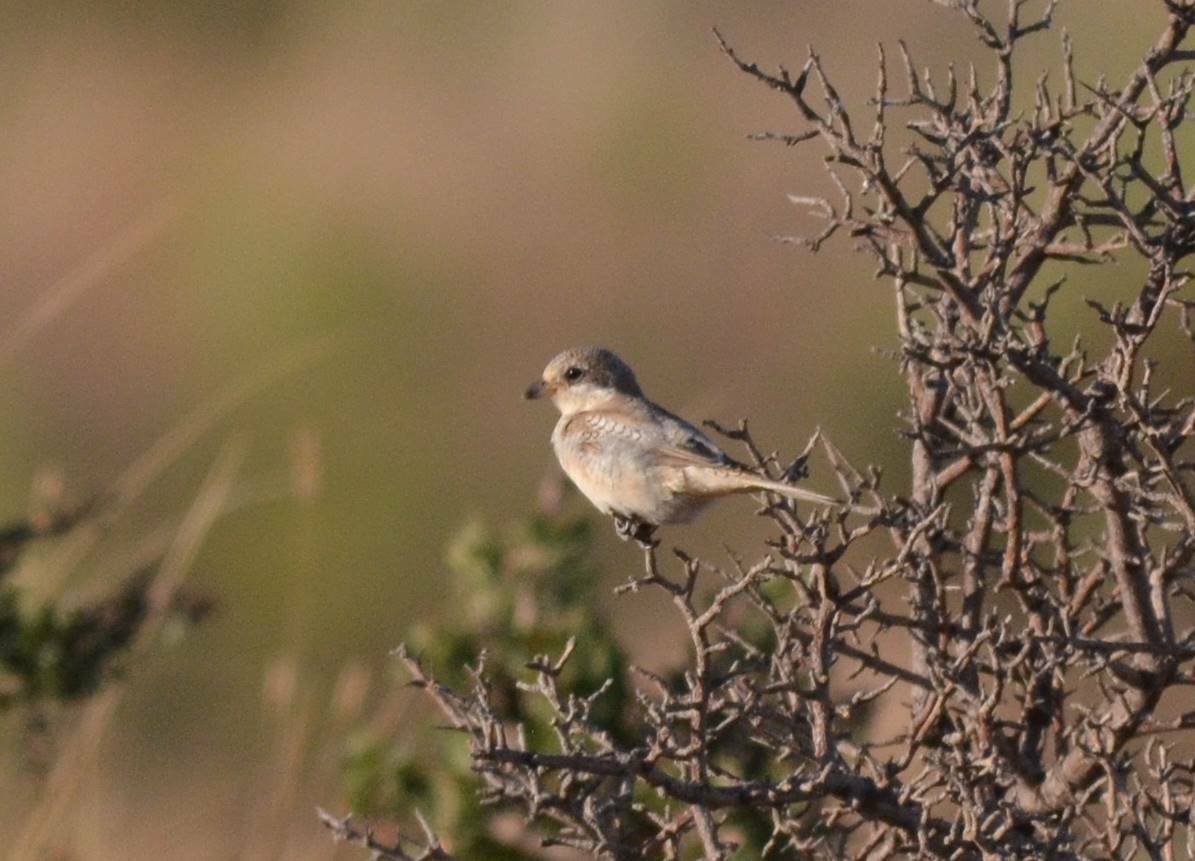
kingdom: Animalia
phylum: Chordata
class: Aves
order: Passeriformes
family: Laniidae
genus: Lanius
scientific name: Lanius senator
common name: Woodchat shrike
